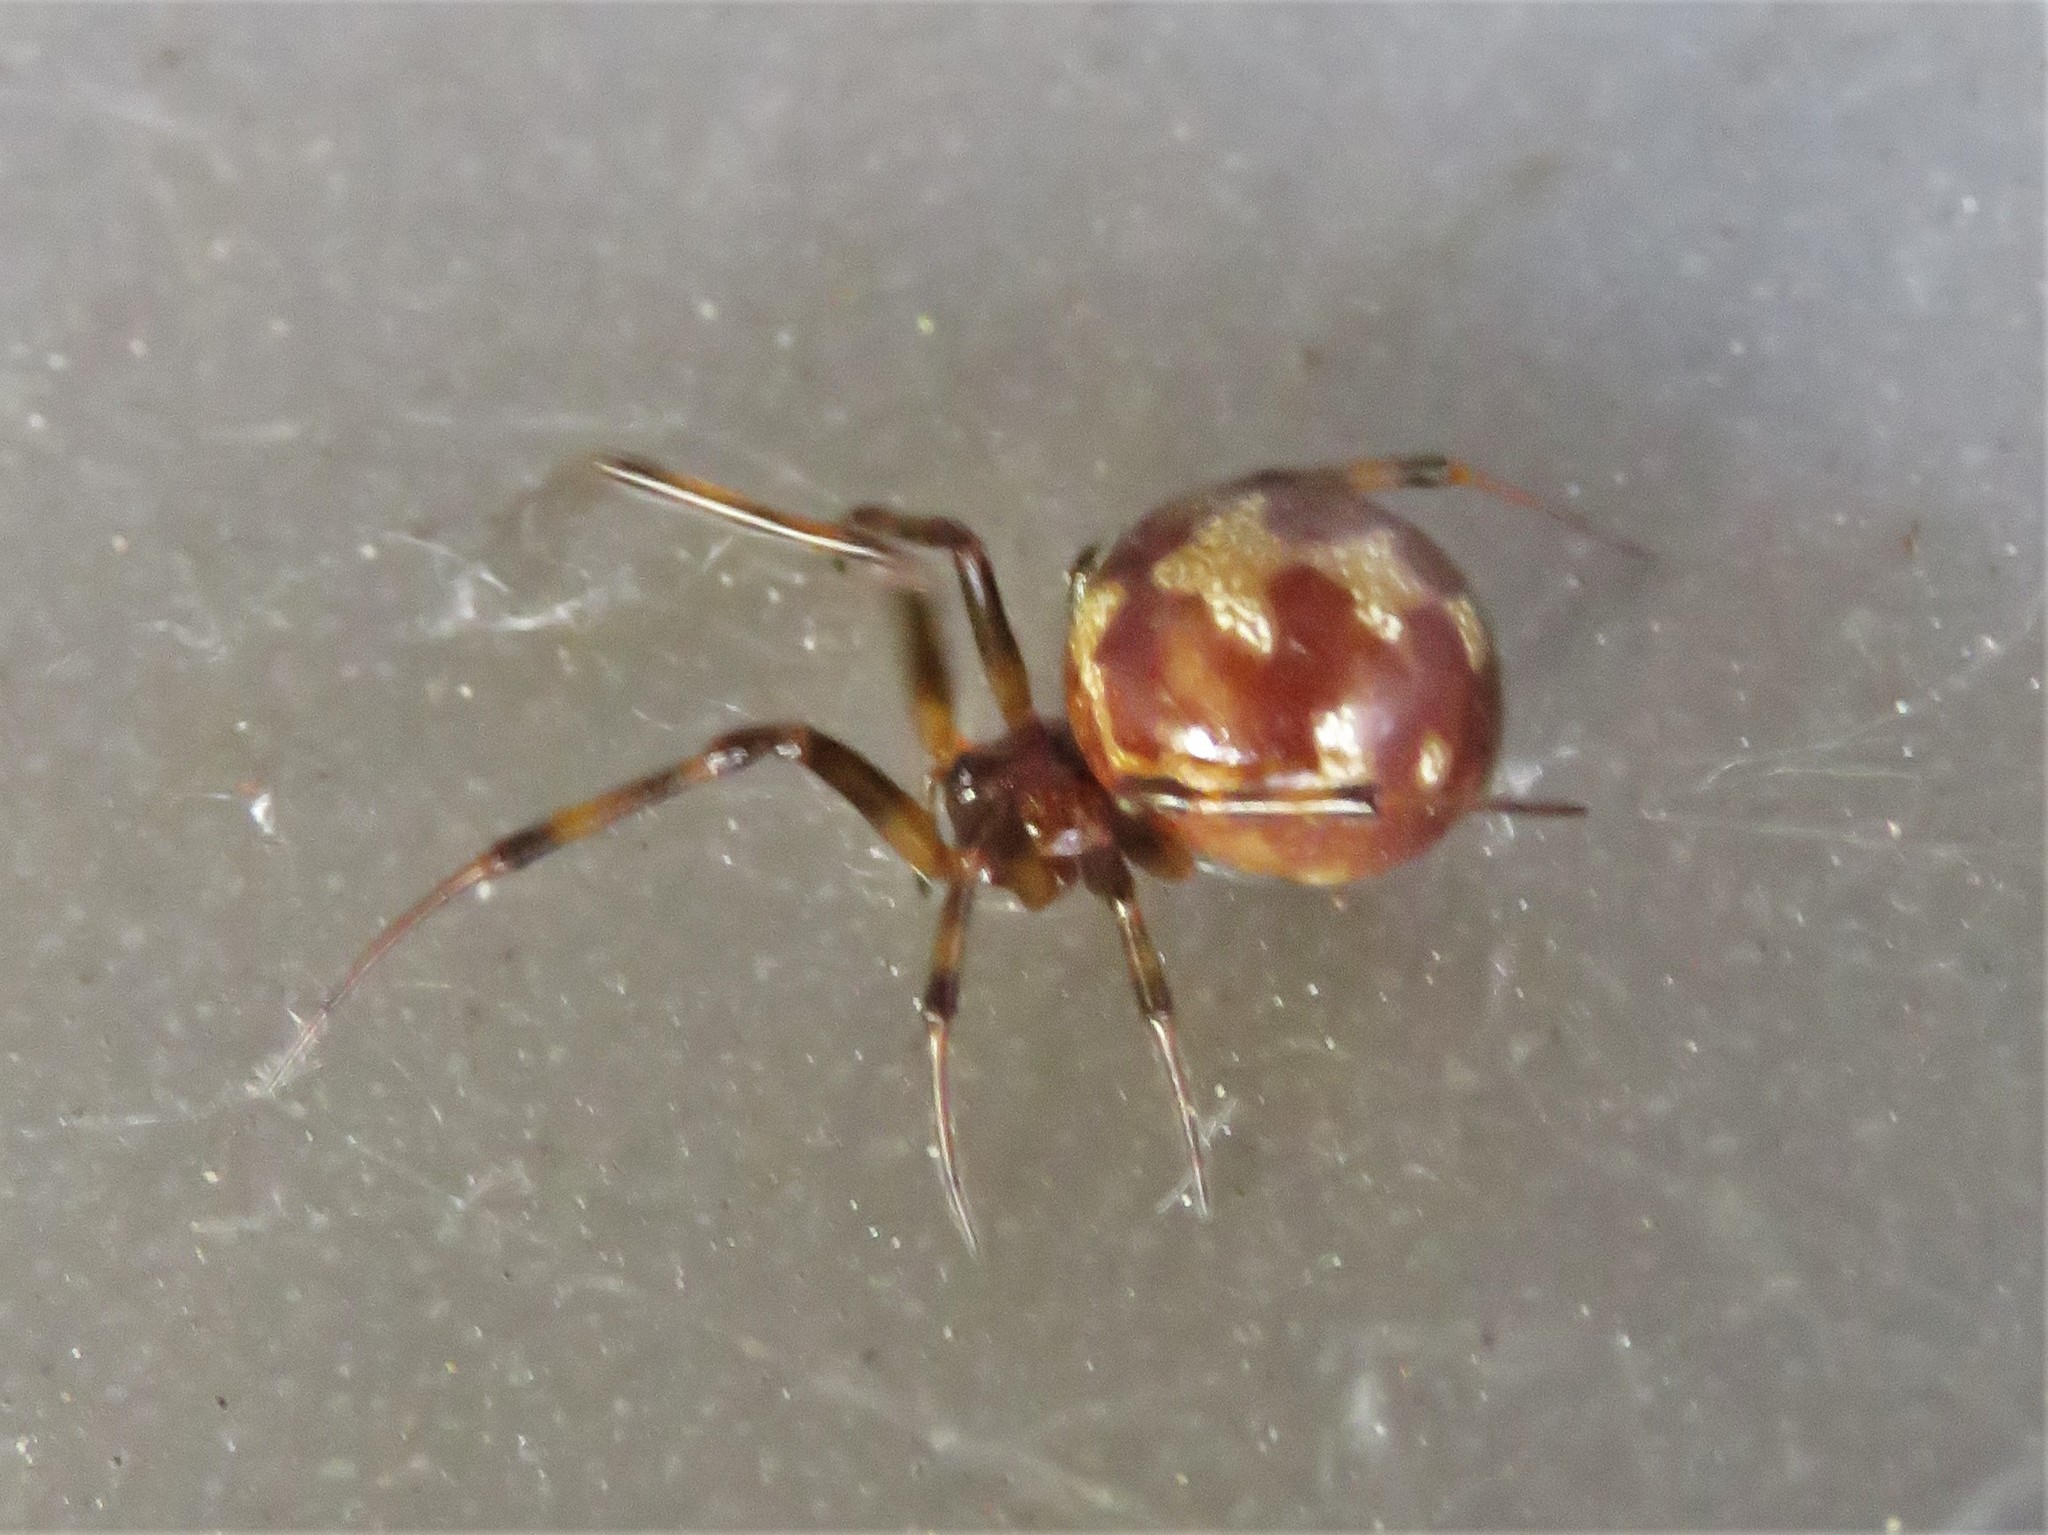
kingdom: Animalia
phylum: Arthropoda
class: Arachnida
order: Araneae
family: Theridiidae
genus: Steatoda
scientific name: Steatoda triangulosa
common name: Triangulate bud spider
